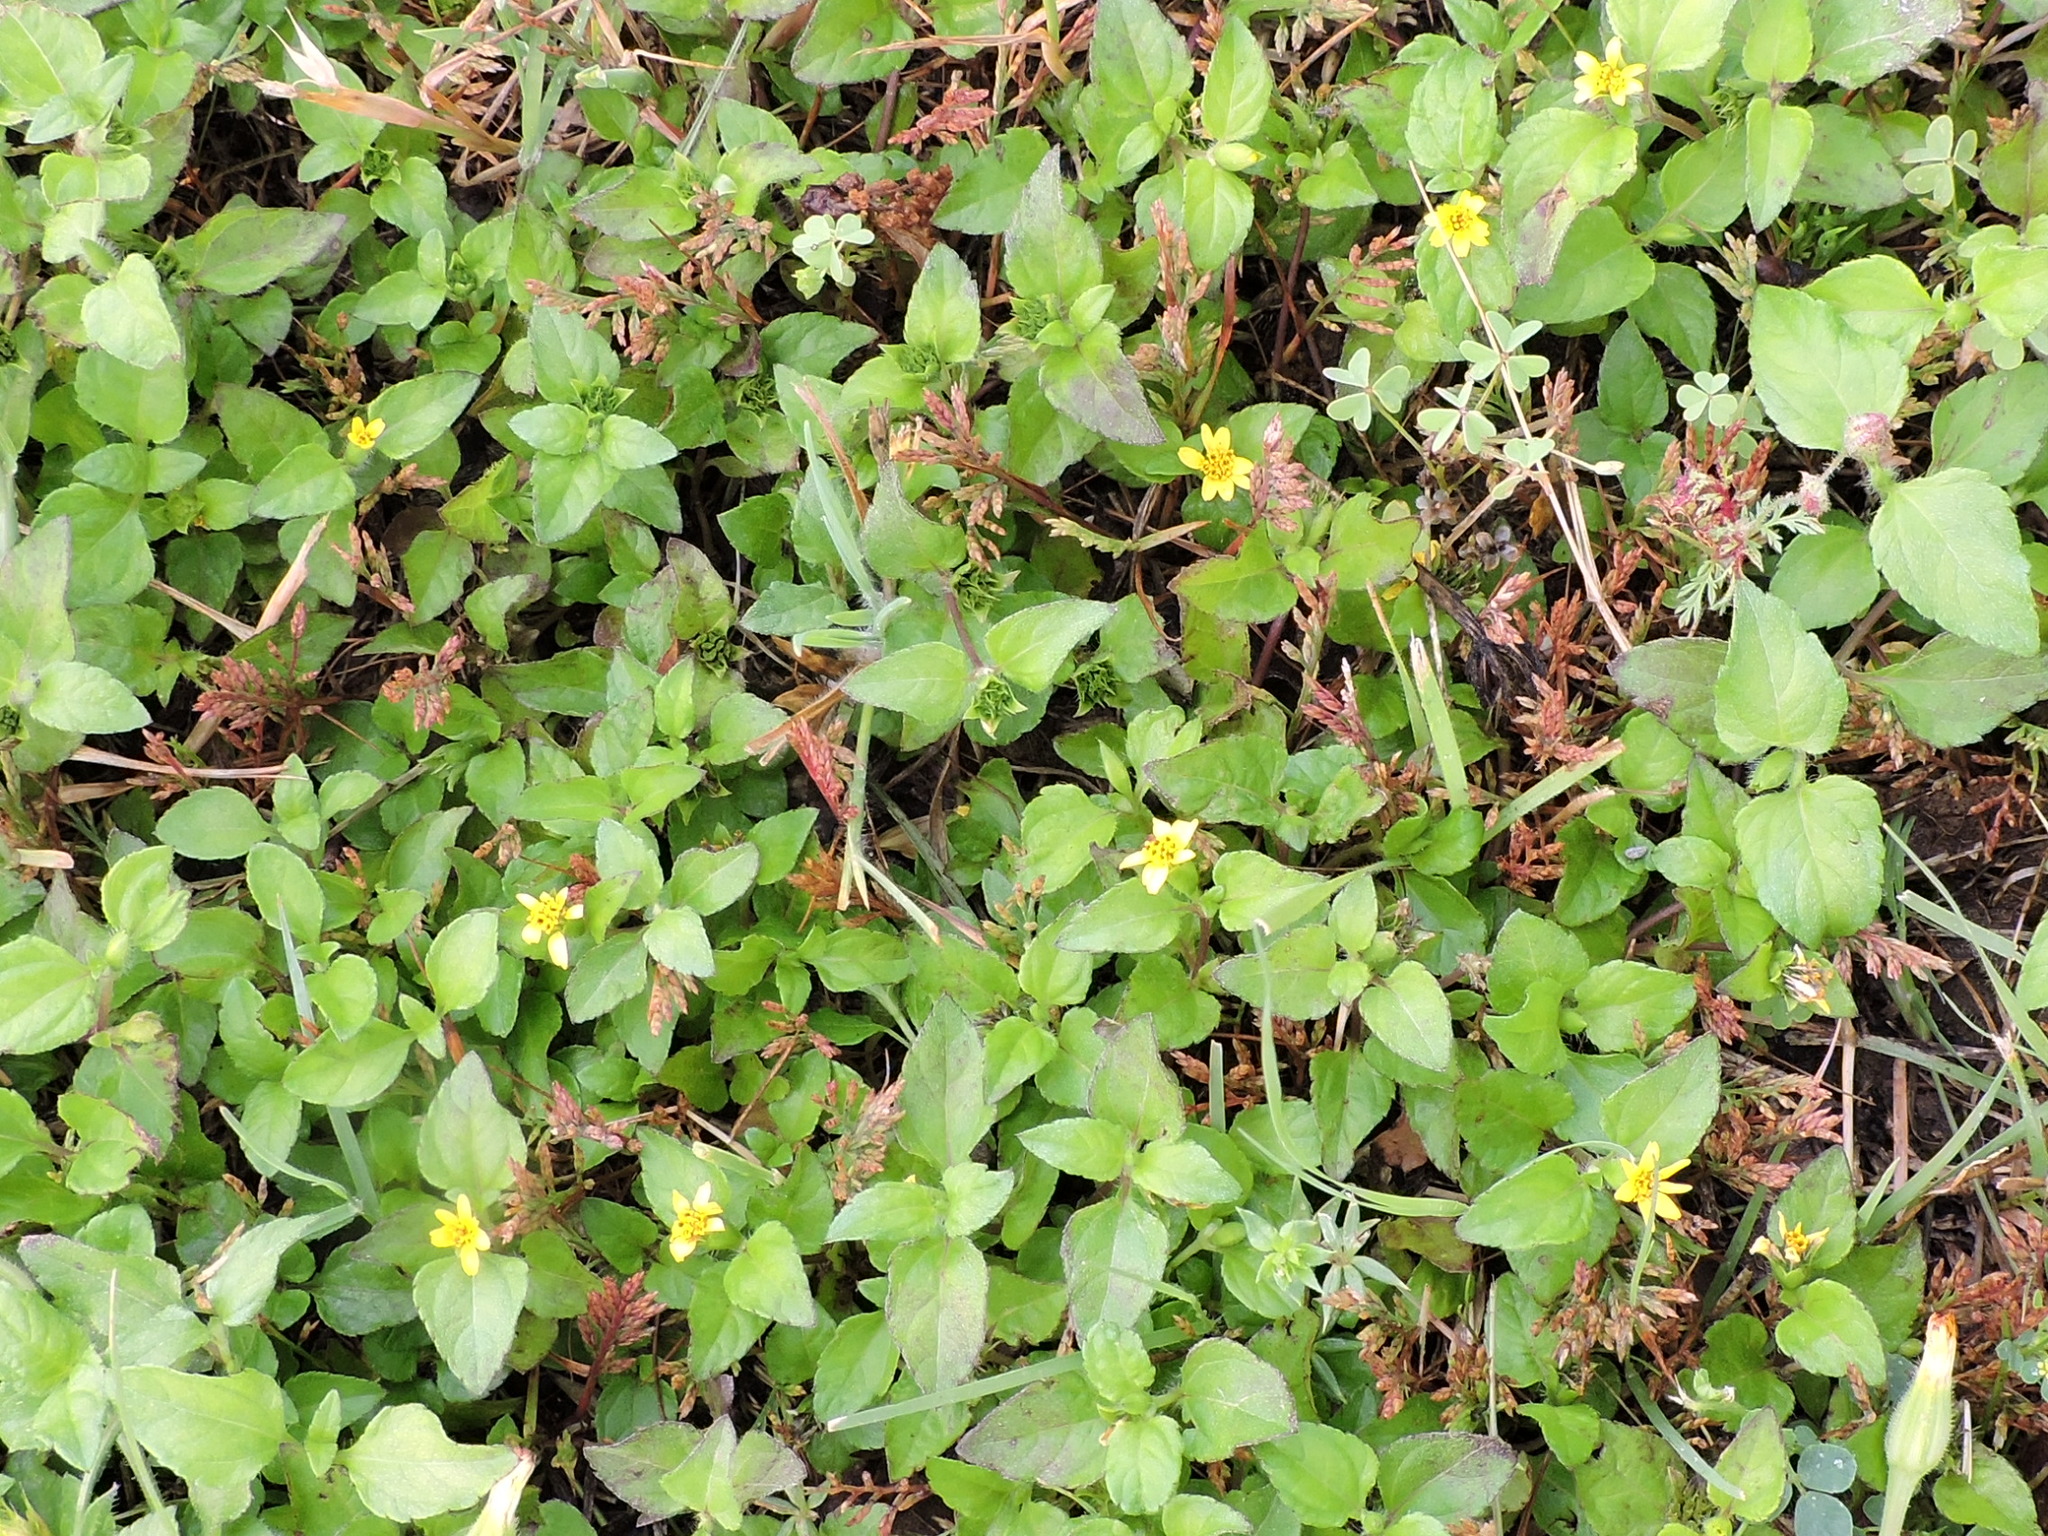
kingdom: Plantae
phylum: Tracheophyta
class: Magnoliopsida
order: Asterales
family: Asteraceae
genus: Calyptocarpus
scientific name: Calyptocarpus vialis
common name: Straggler daisy
